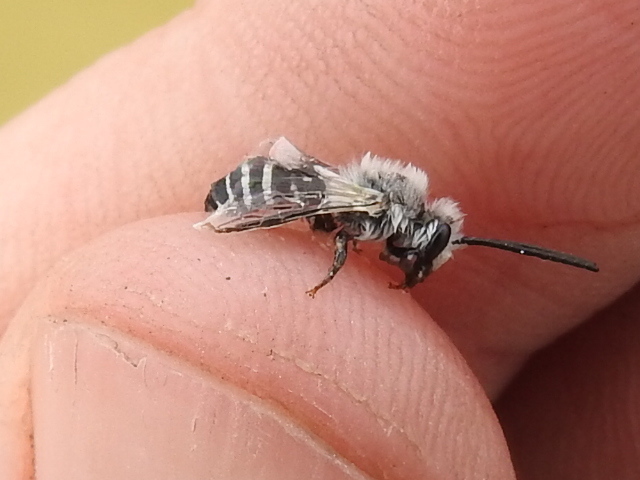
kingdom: Animalia
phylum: Arthropoda
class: Insecta
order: Hymenoptera
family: Colletidae
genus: Colletes
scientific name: Colletes
